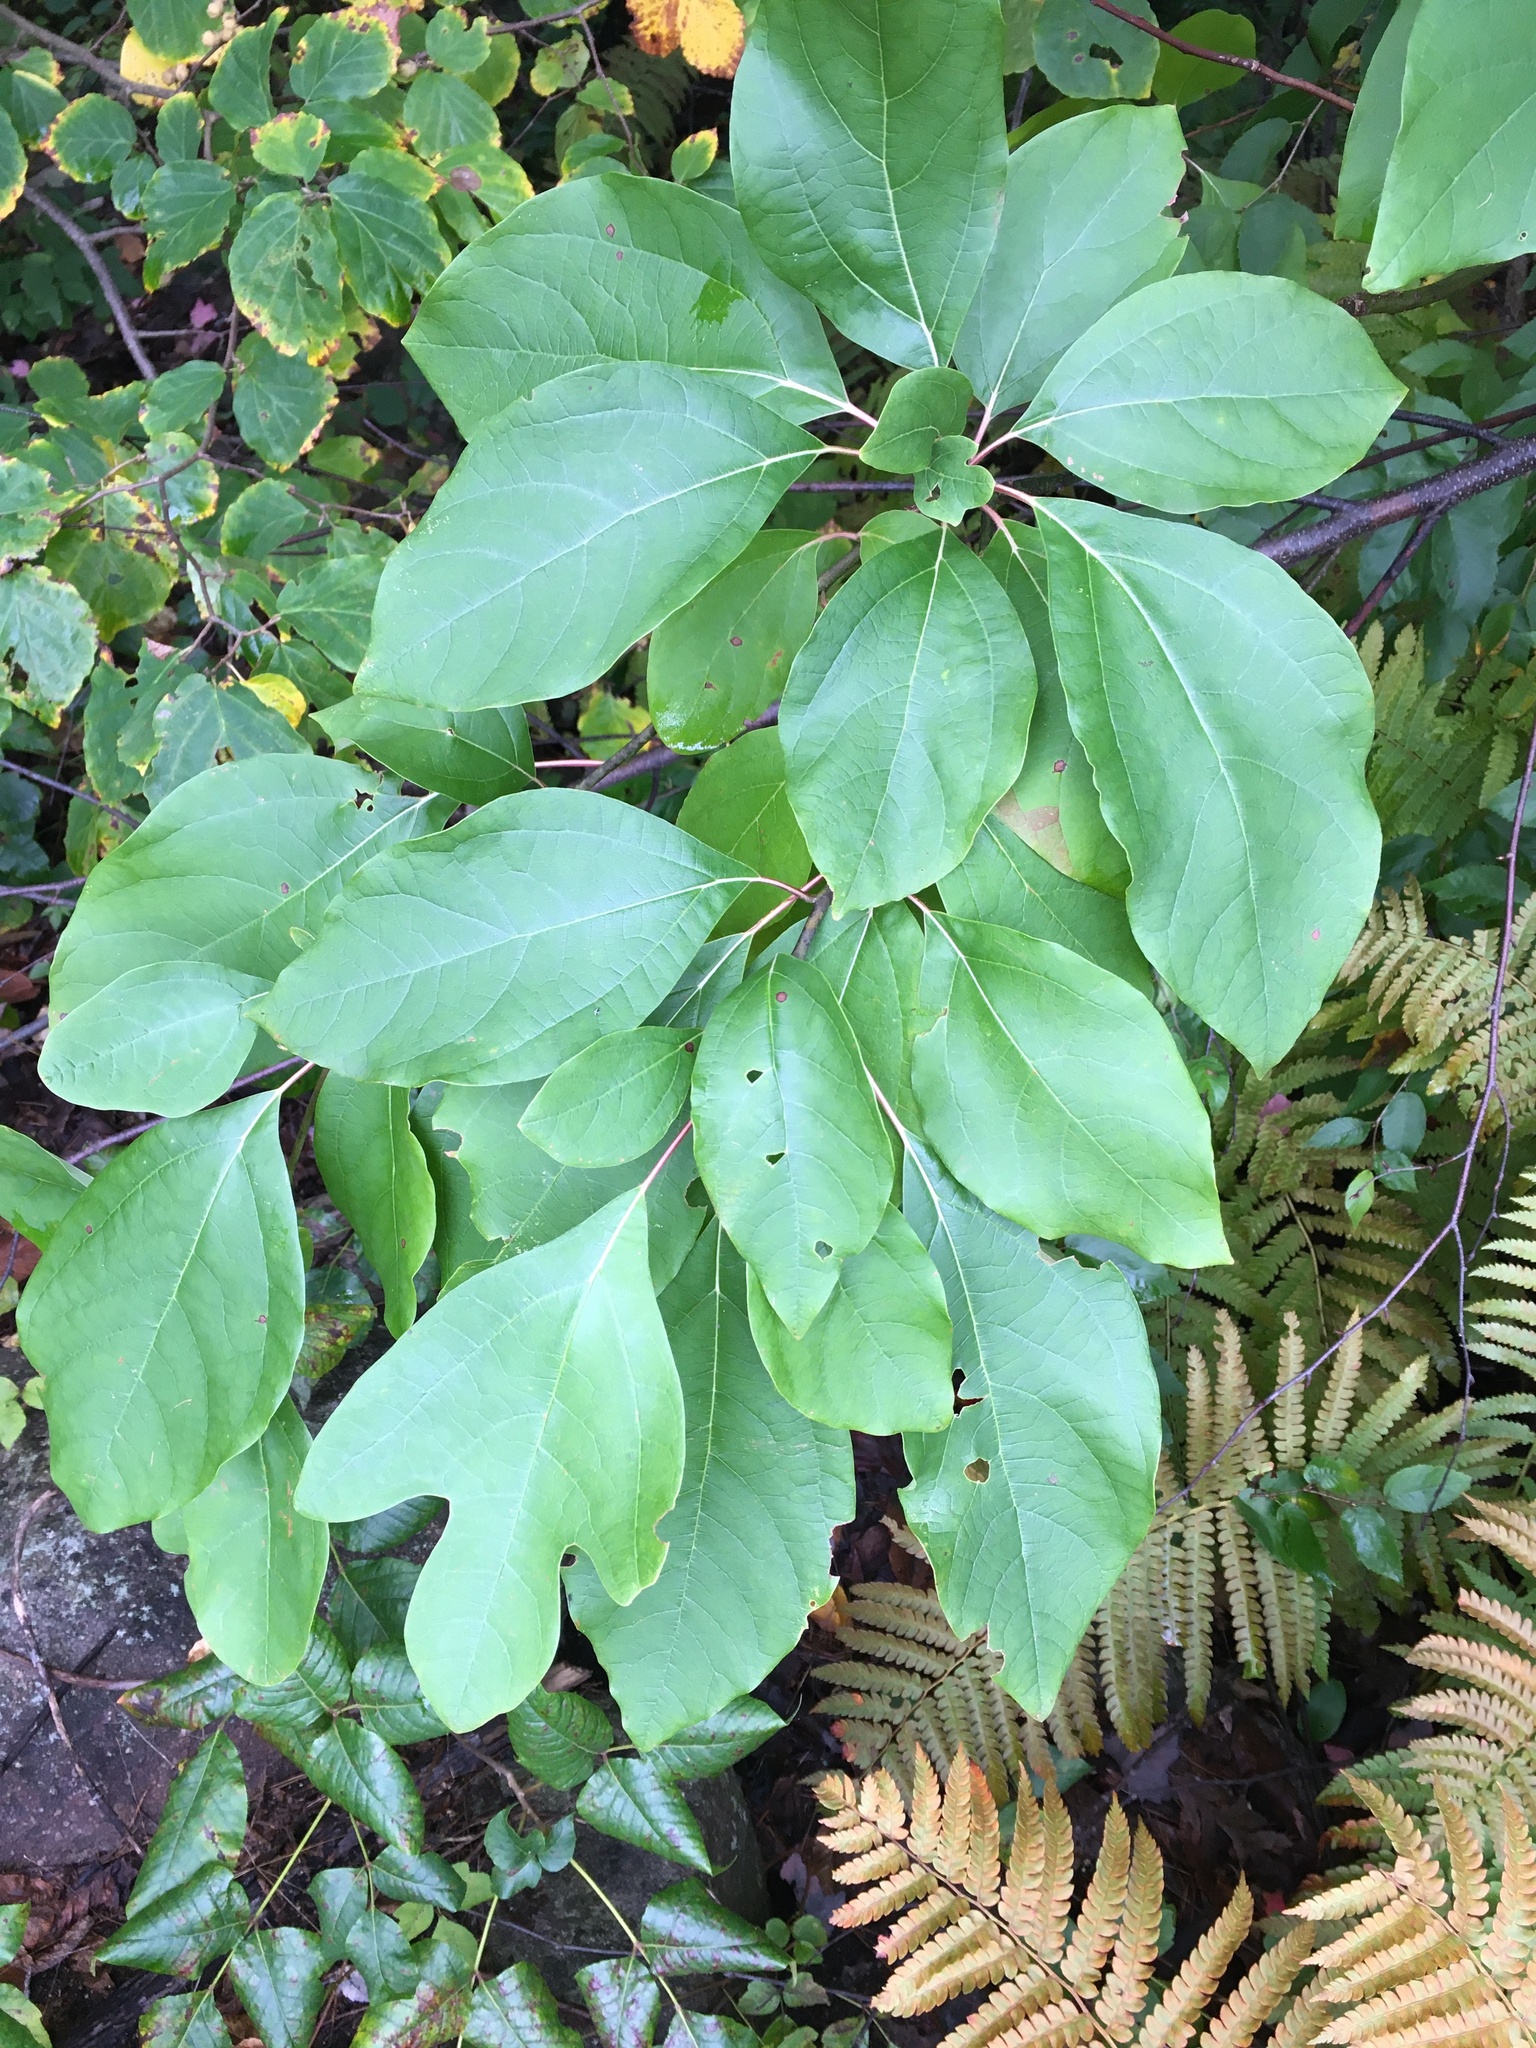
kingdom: Plantae
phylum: Tracheophyta
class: Magnoliopsida
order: Laurales
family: Lauraceae
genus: Sassafras
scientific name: Sassafras albidum
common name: Sassafras
